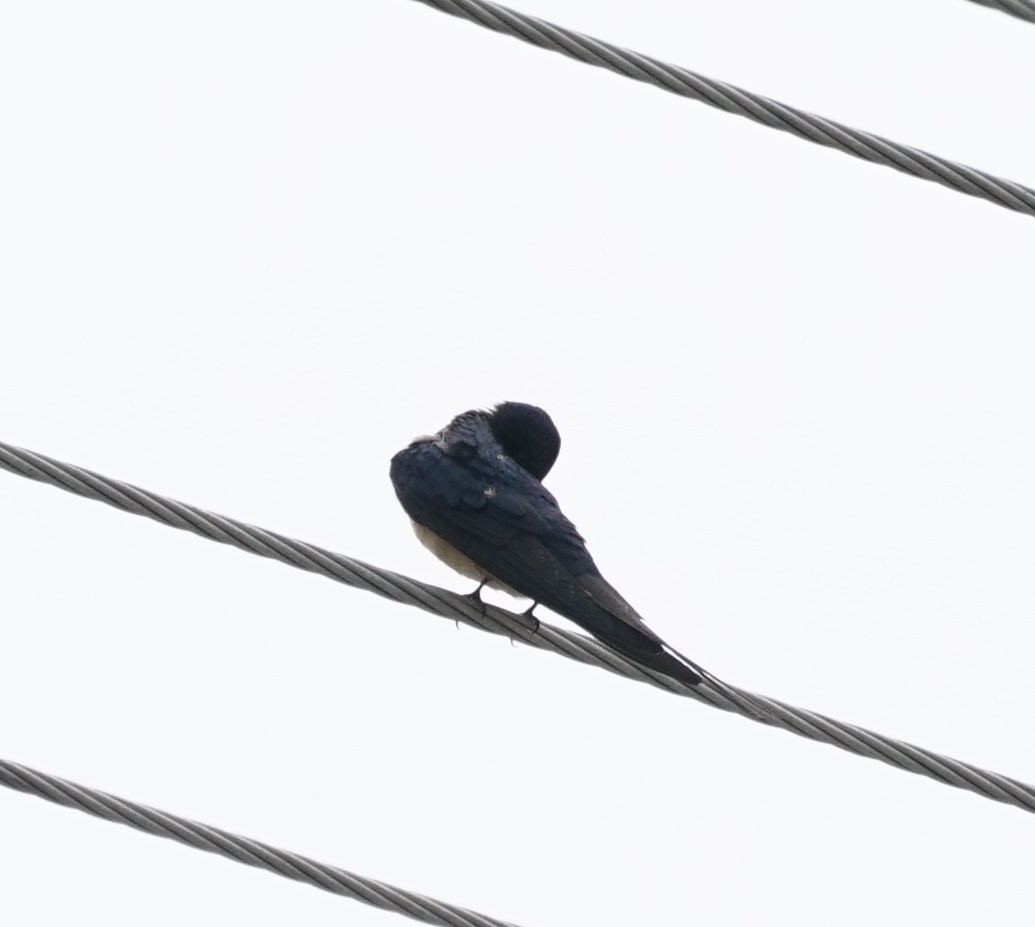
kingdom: Animalia
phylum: Chordata
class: Aves
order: Passeriformes
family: Hirundinidae
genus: Hirundo
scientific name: Hirundo rustica
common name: Barn swallow
